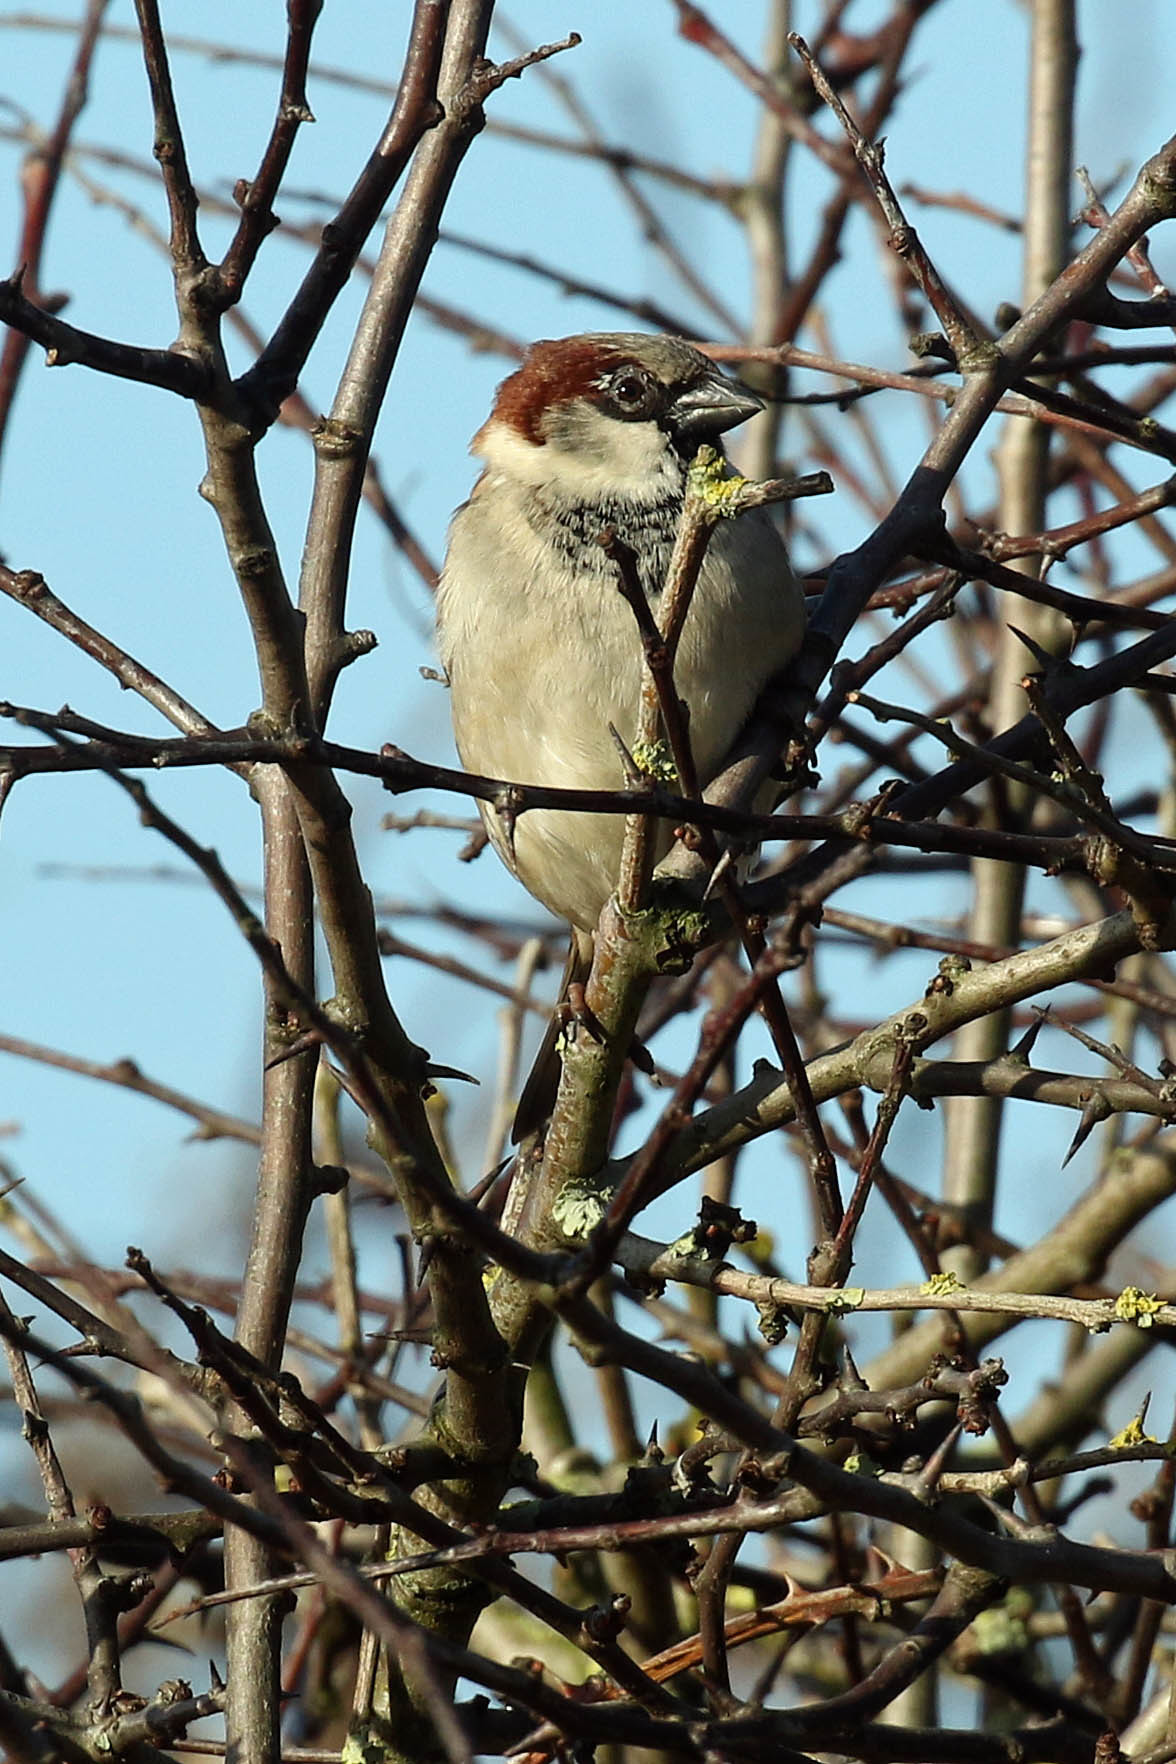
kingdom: Animalia
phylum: Chordata
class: Aves
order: Passeriformes
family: Passeridae
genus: Passer
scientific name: Passer domesticus
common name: House sparrow
